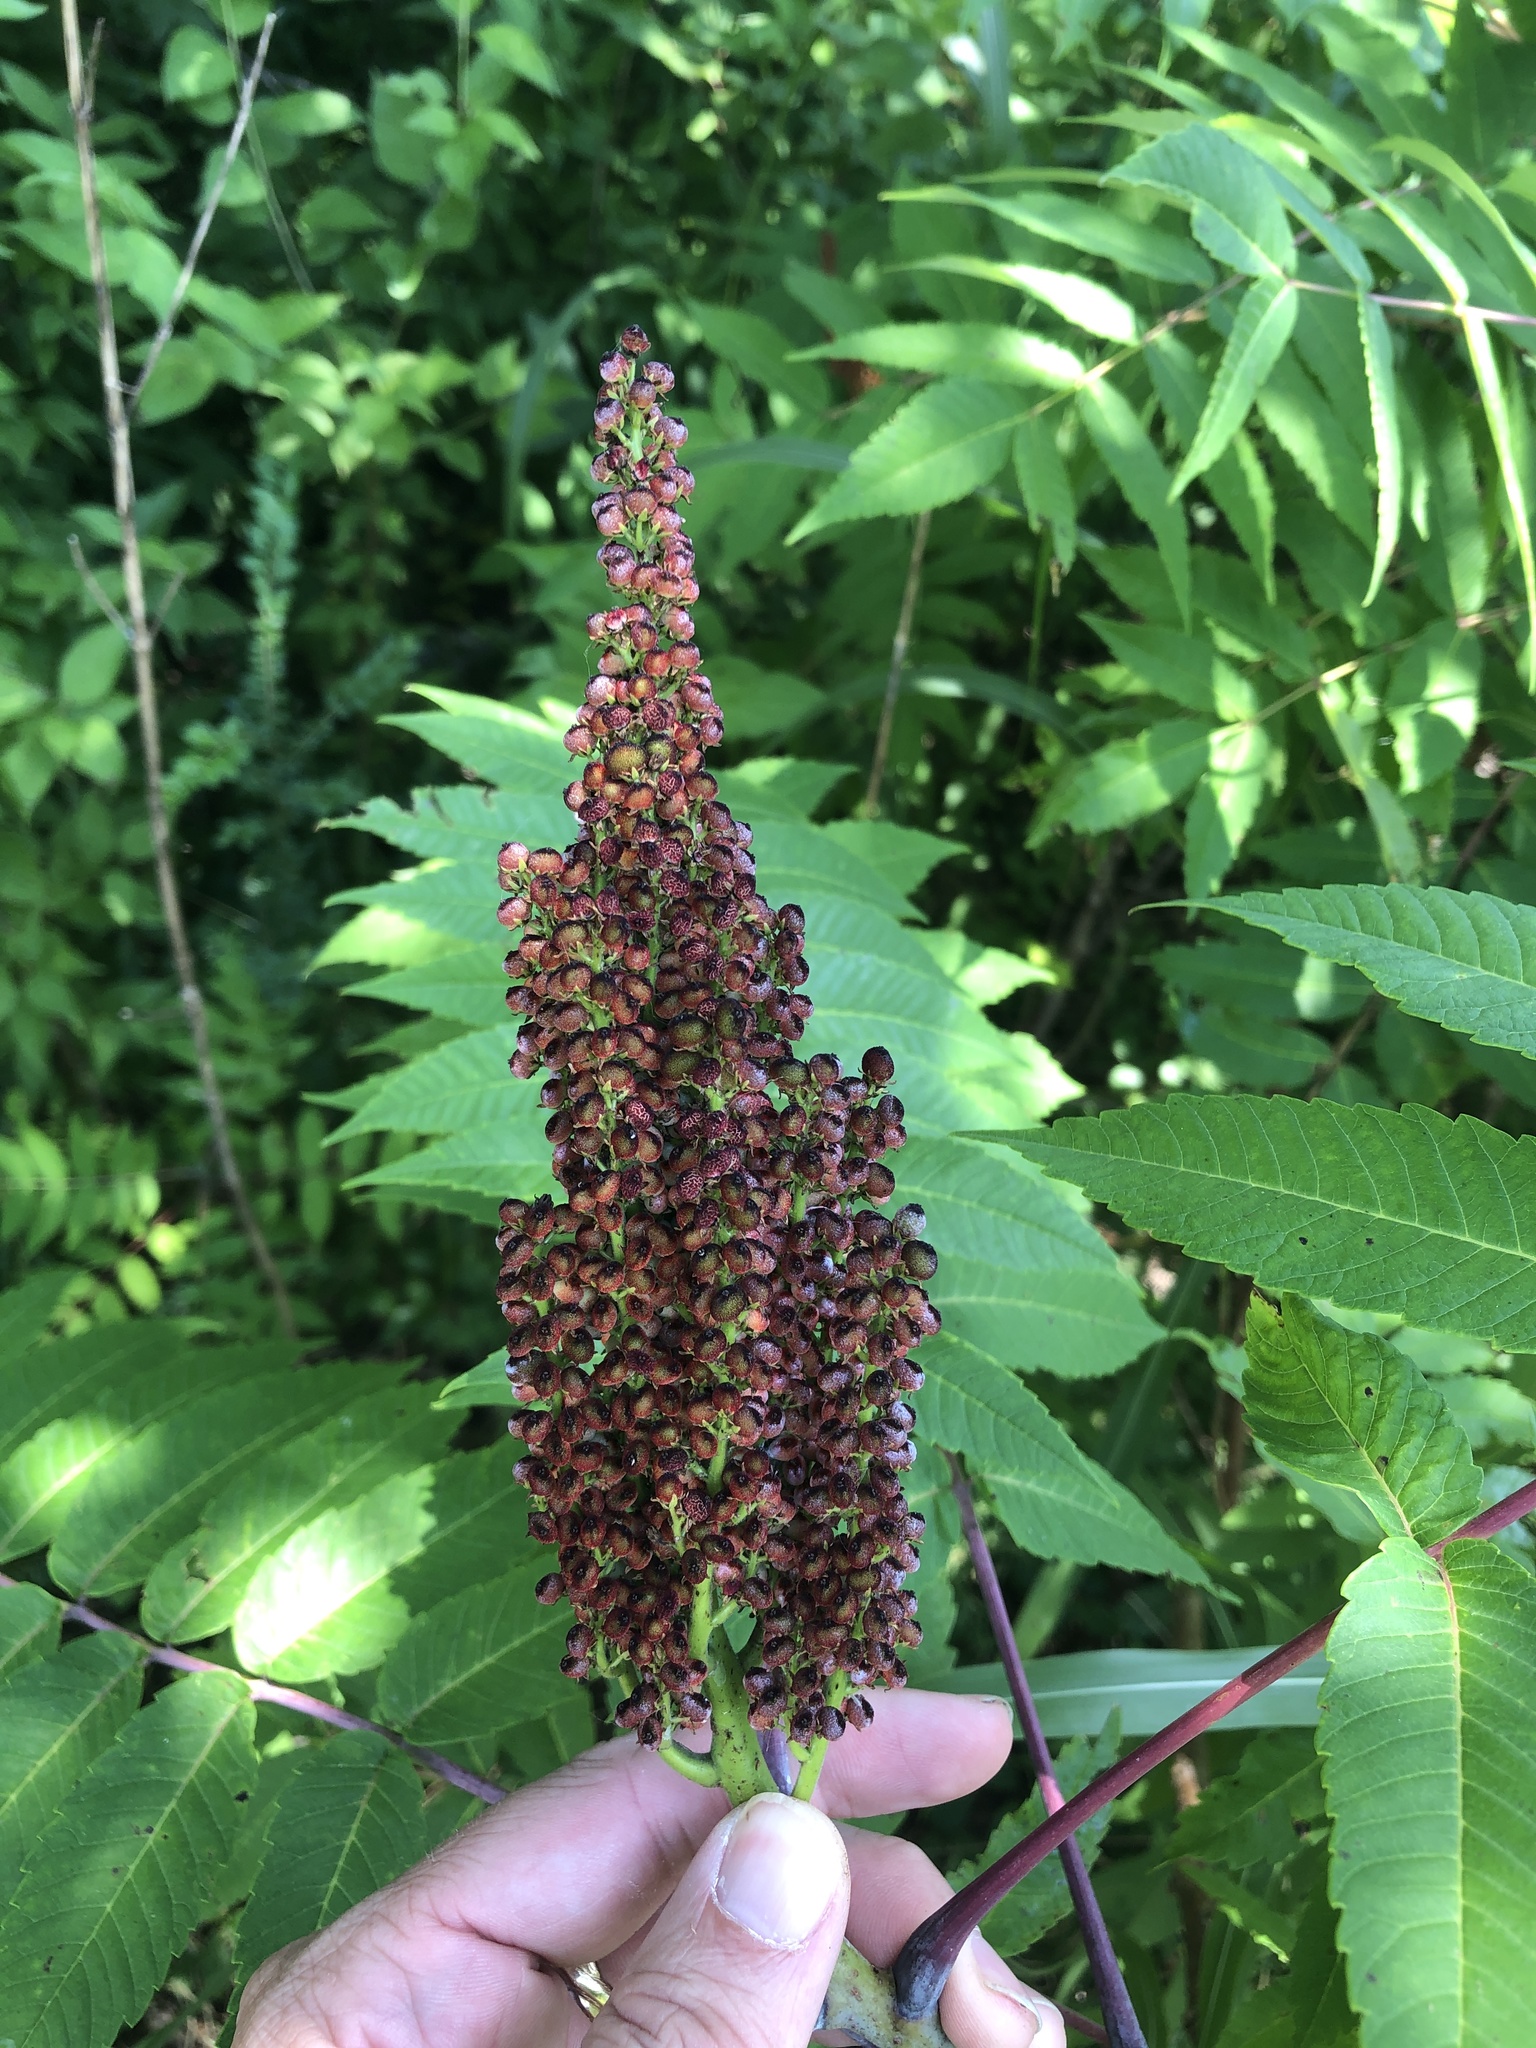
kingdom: Plantae
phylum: Tracheophyta
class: Magnoliopsida
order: Sapindales
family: Anacardiaceae
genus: Rhus
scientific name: Rhus glabra
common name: Scarlet sumac
